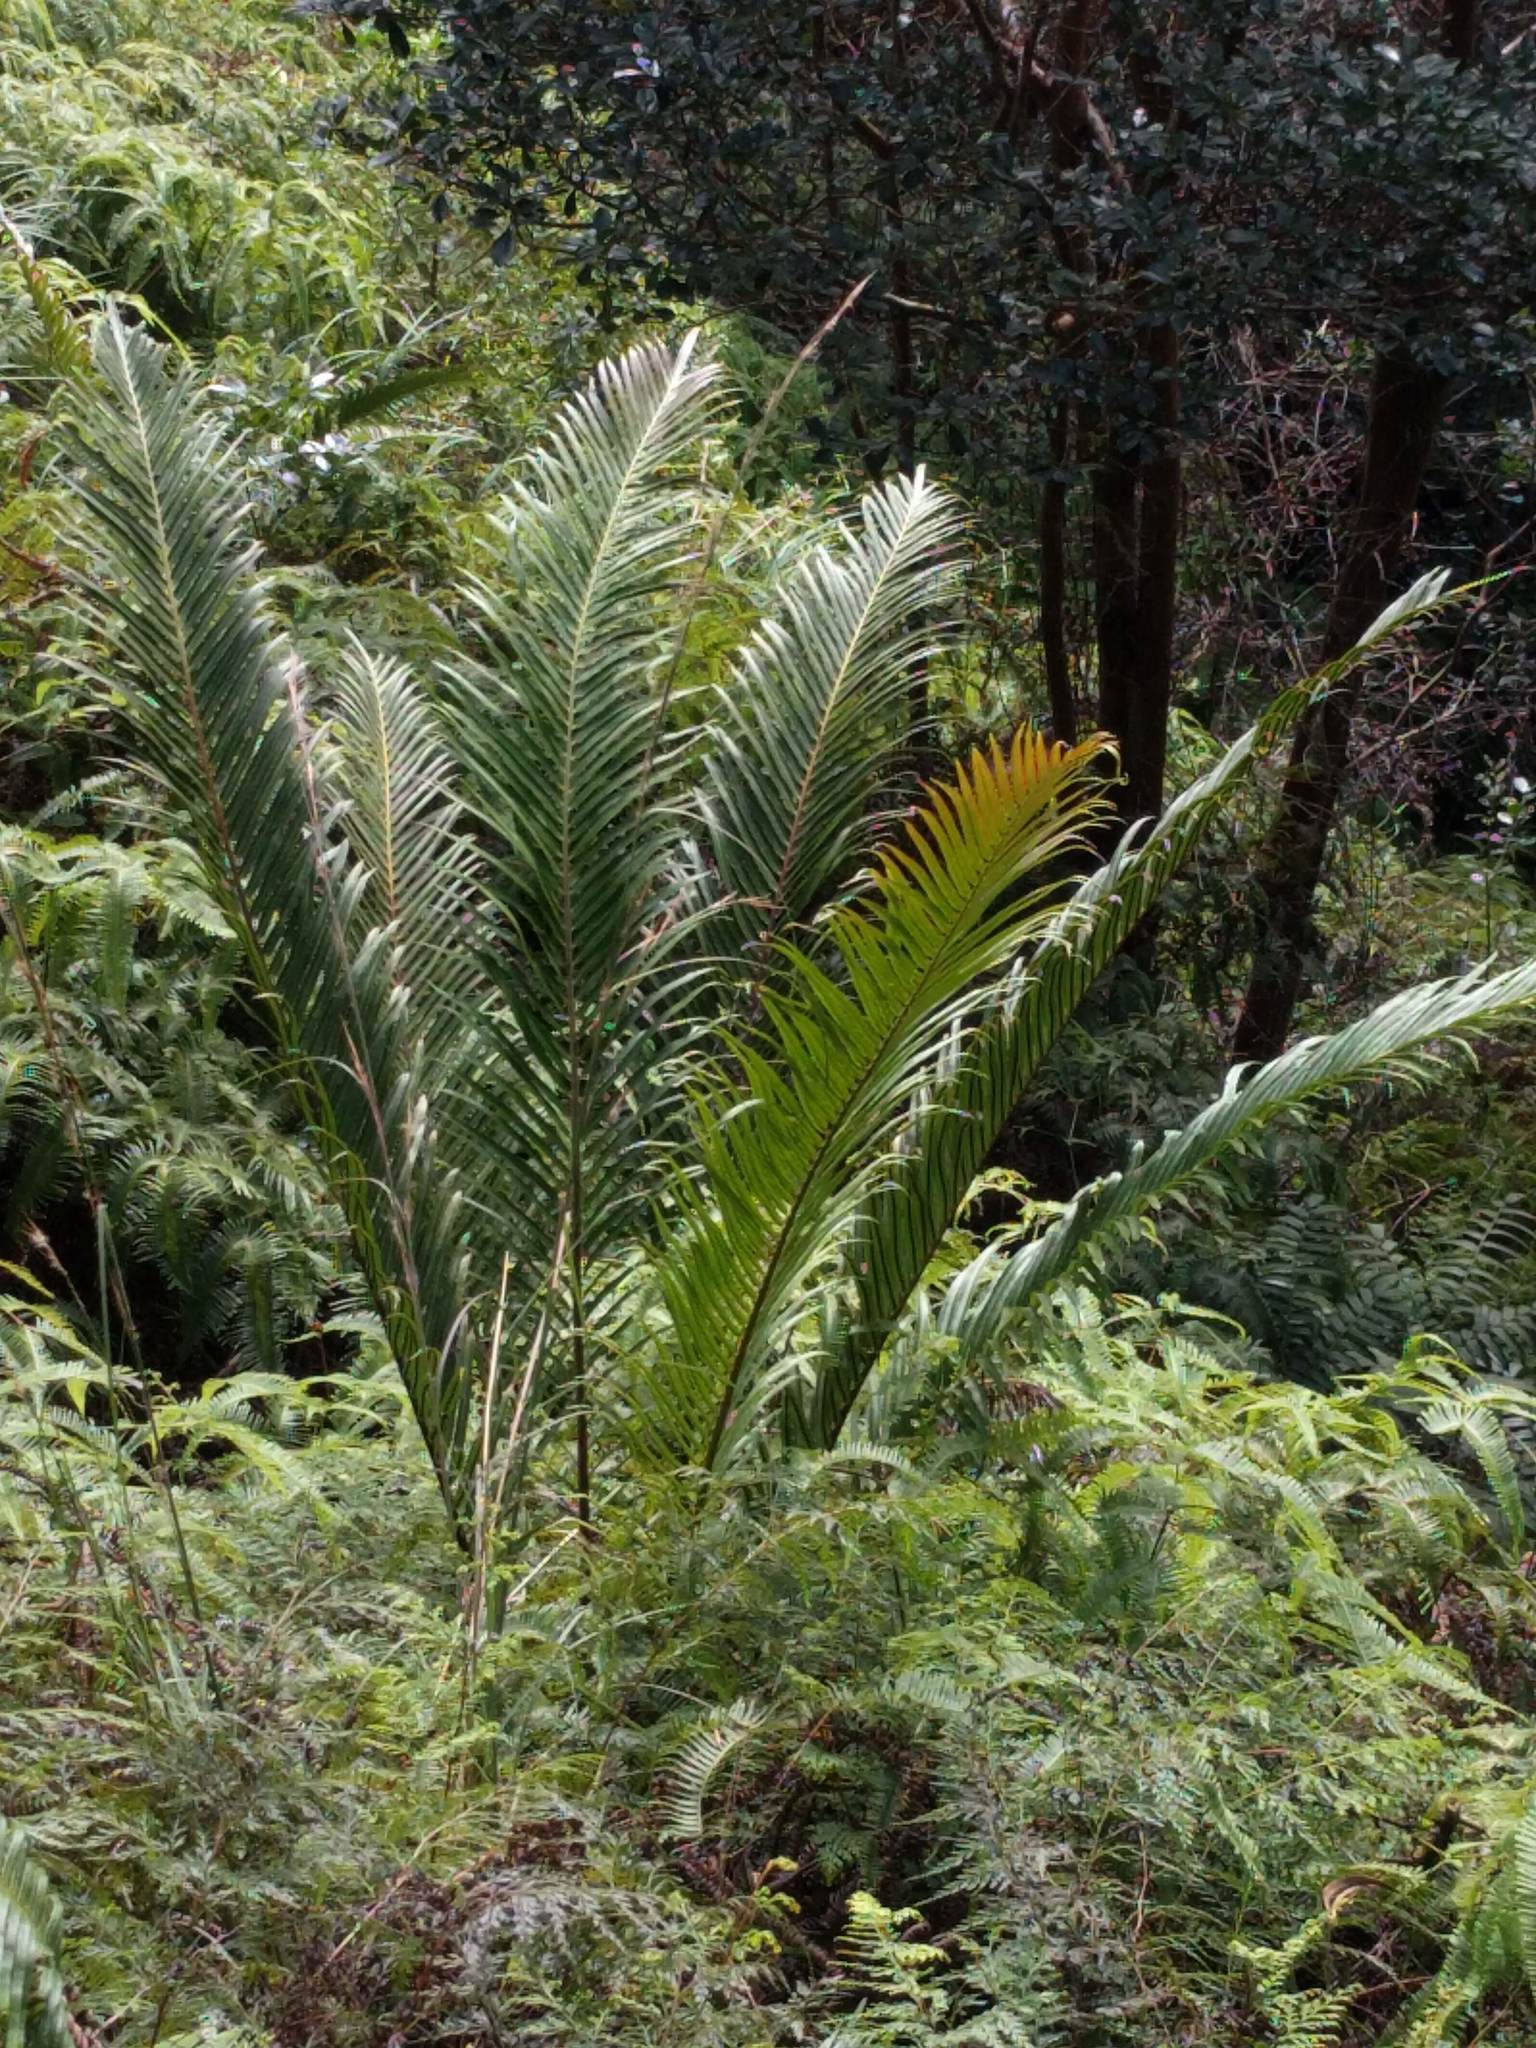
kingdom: Plantae
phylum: Tracheophyta
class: Polypodiopsida
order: Polypodiales
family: Blechnaceae
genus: Blechnopsis
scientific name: Blechnopsis orientalis
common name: Oriental blechnum
